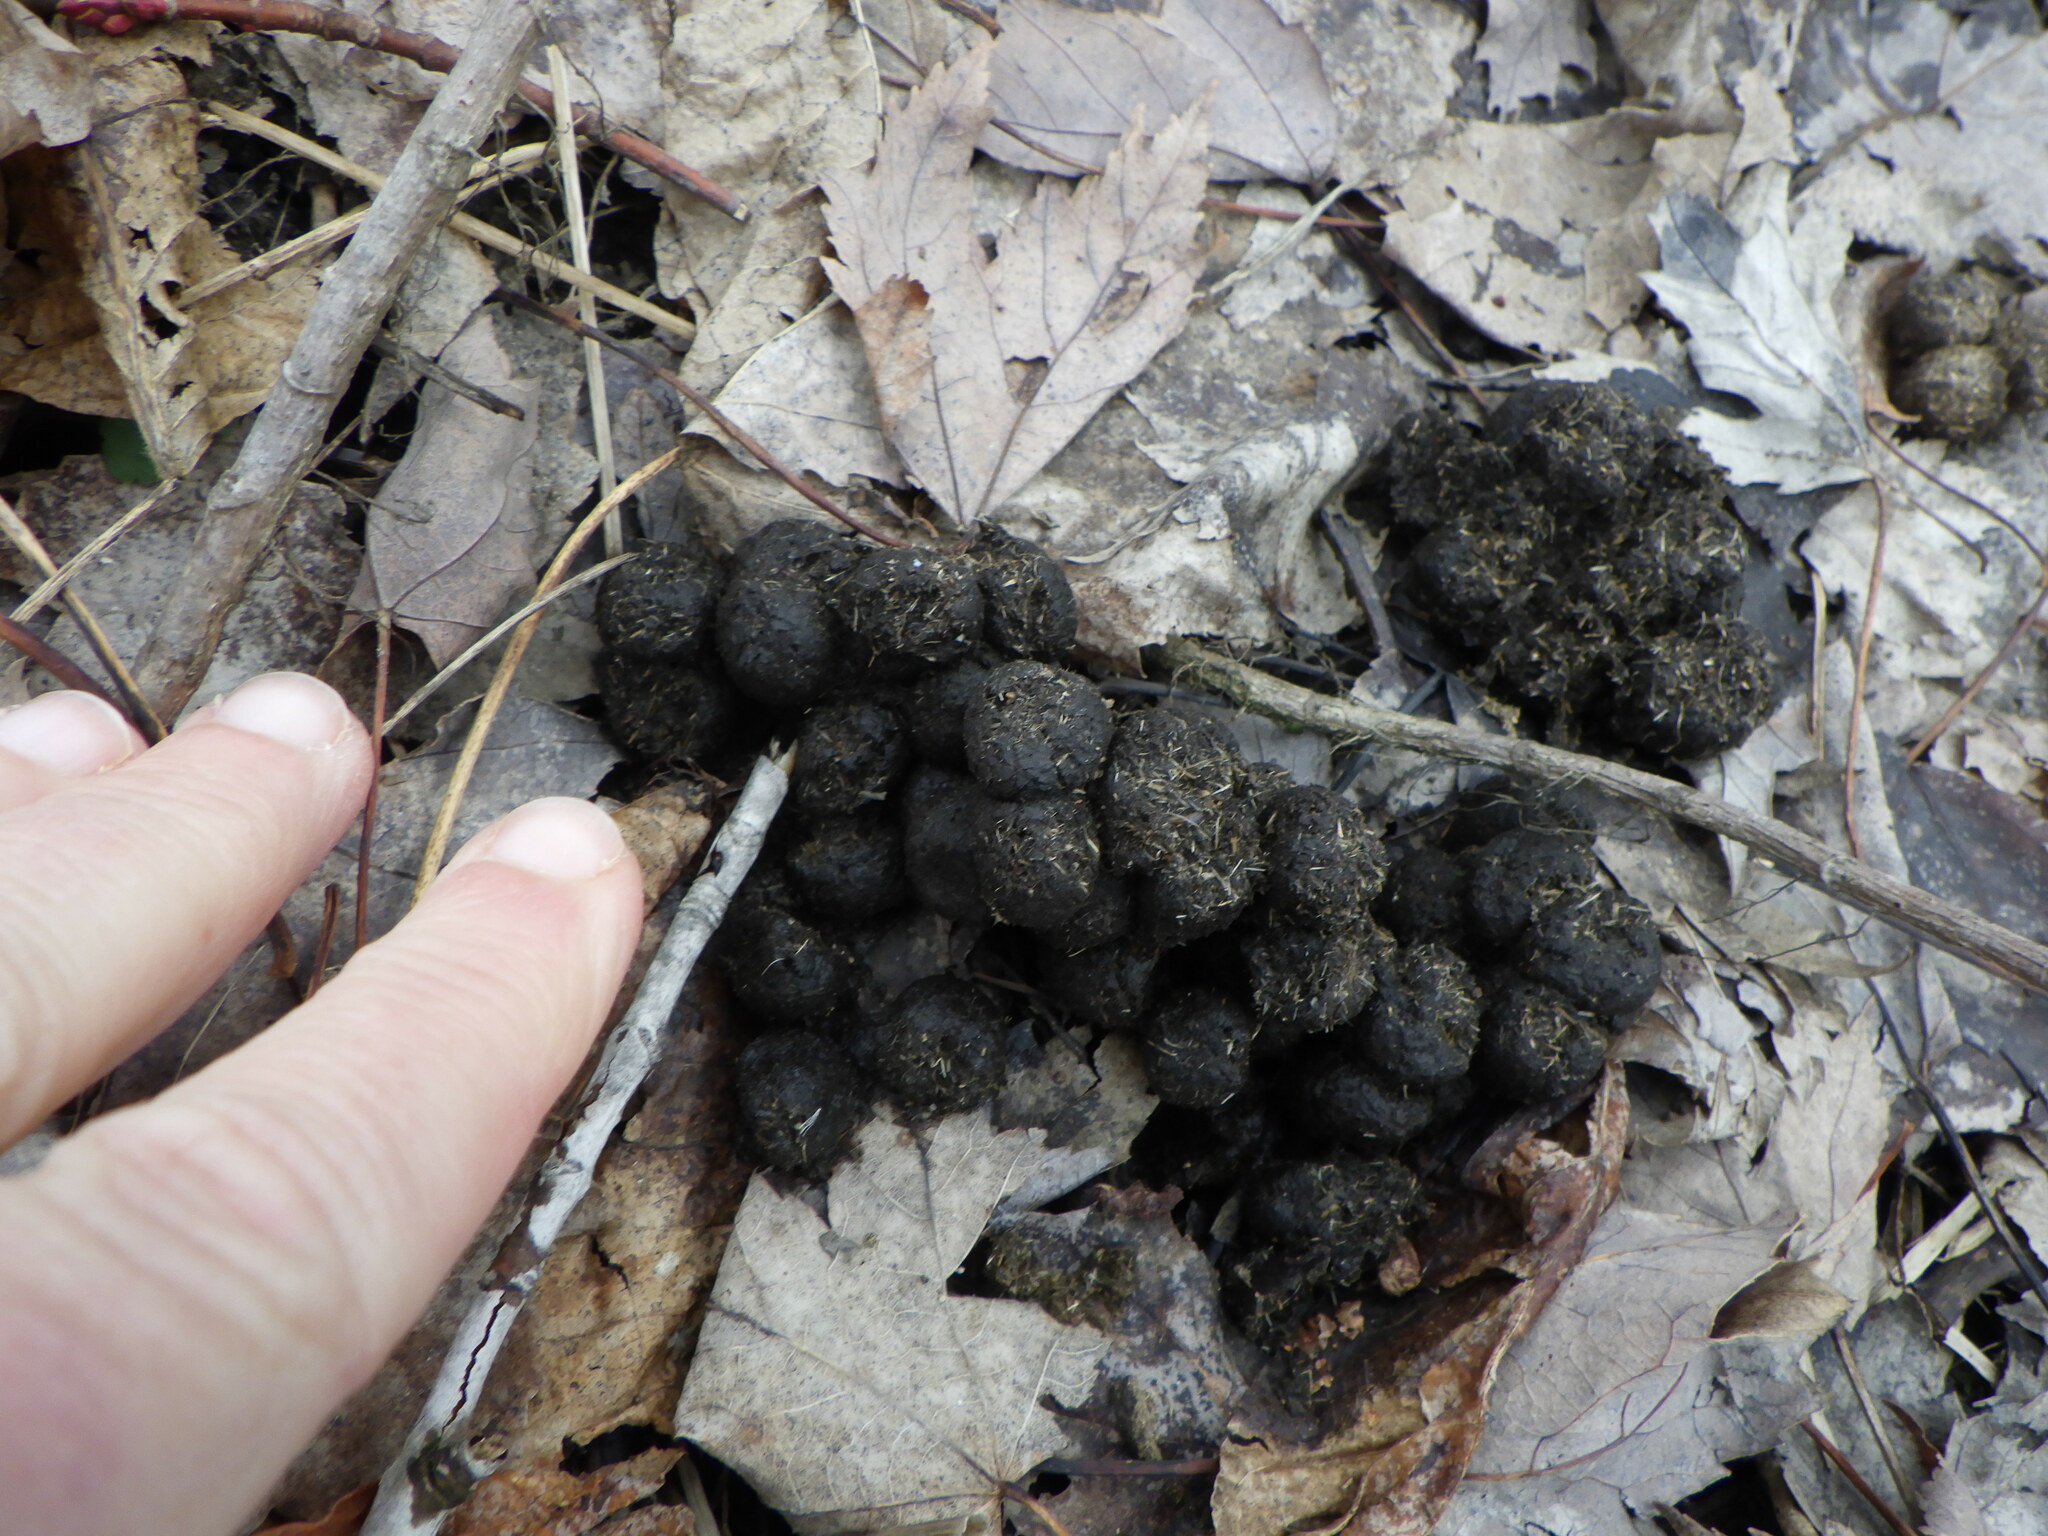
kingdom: Animalia
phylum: Chordata
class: Mammalia
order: Artiodactyla
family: Cervidae
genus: Odocoileus
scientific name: Odocoileus virginianus
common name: White-tailed deer
